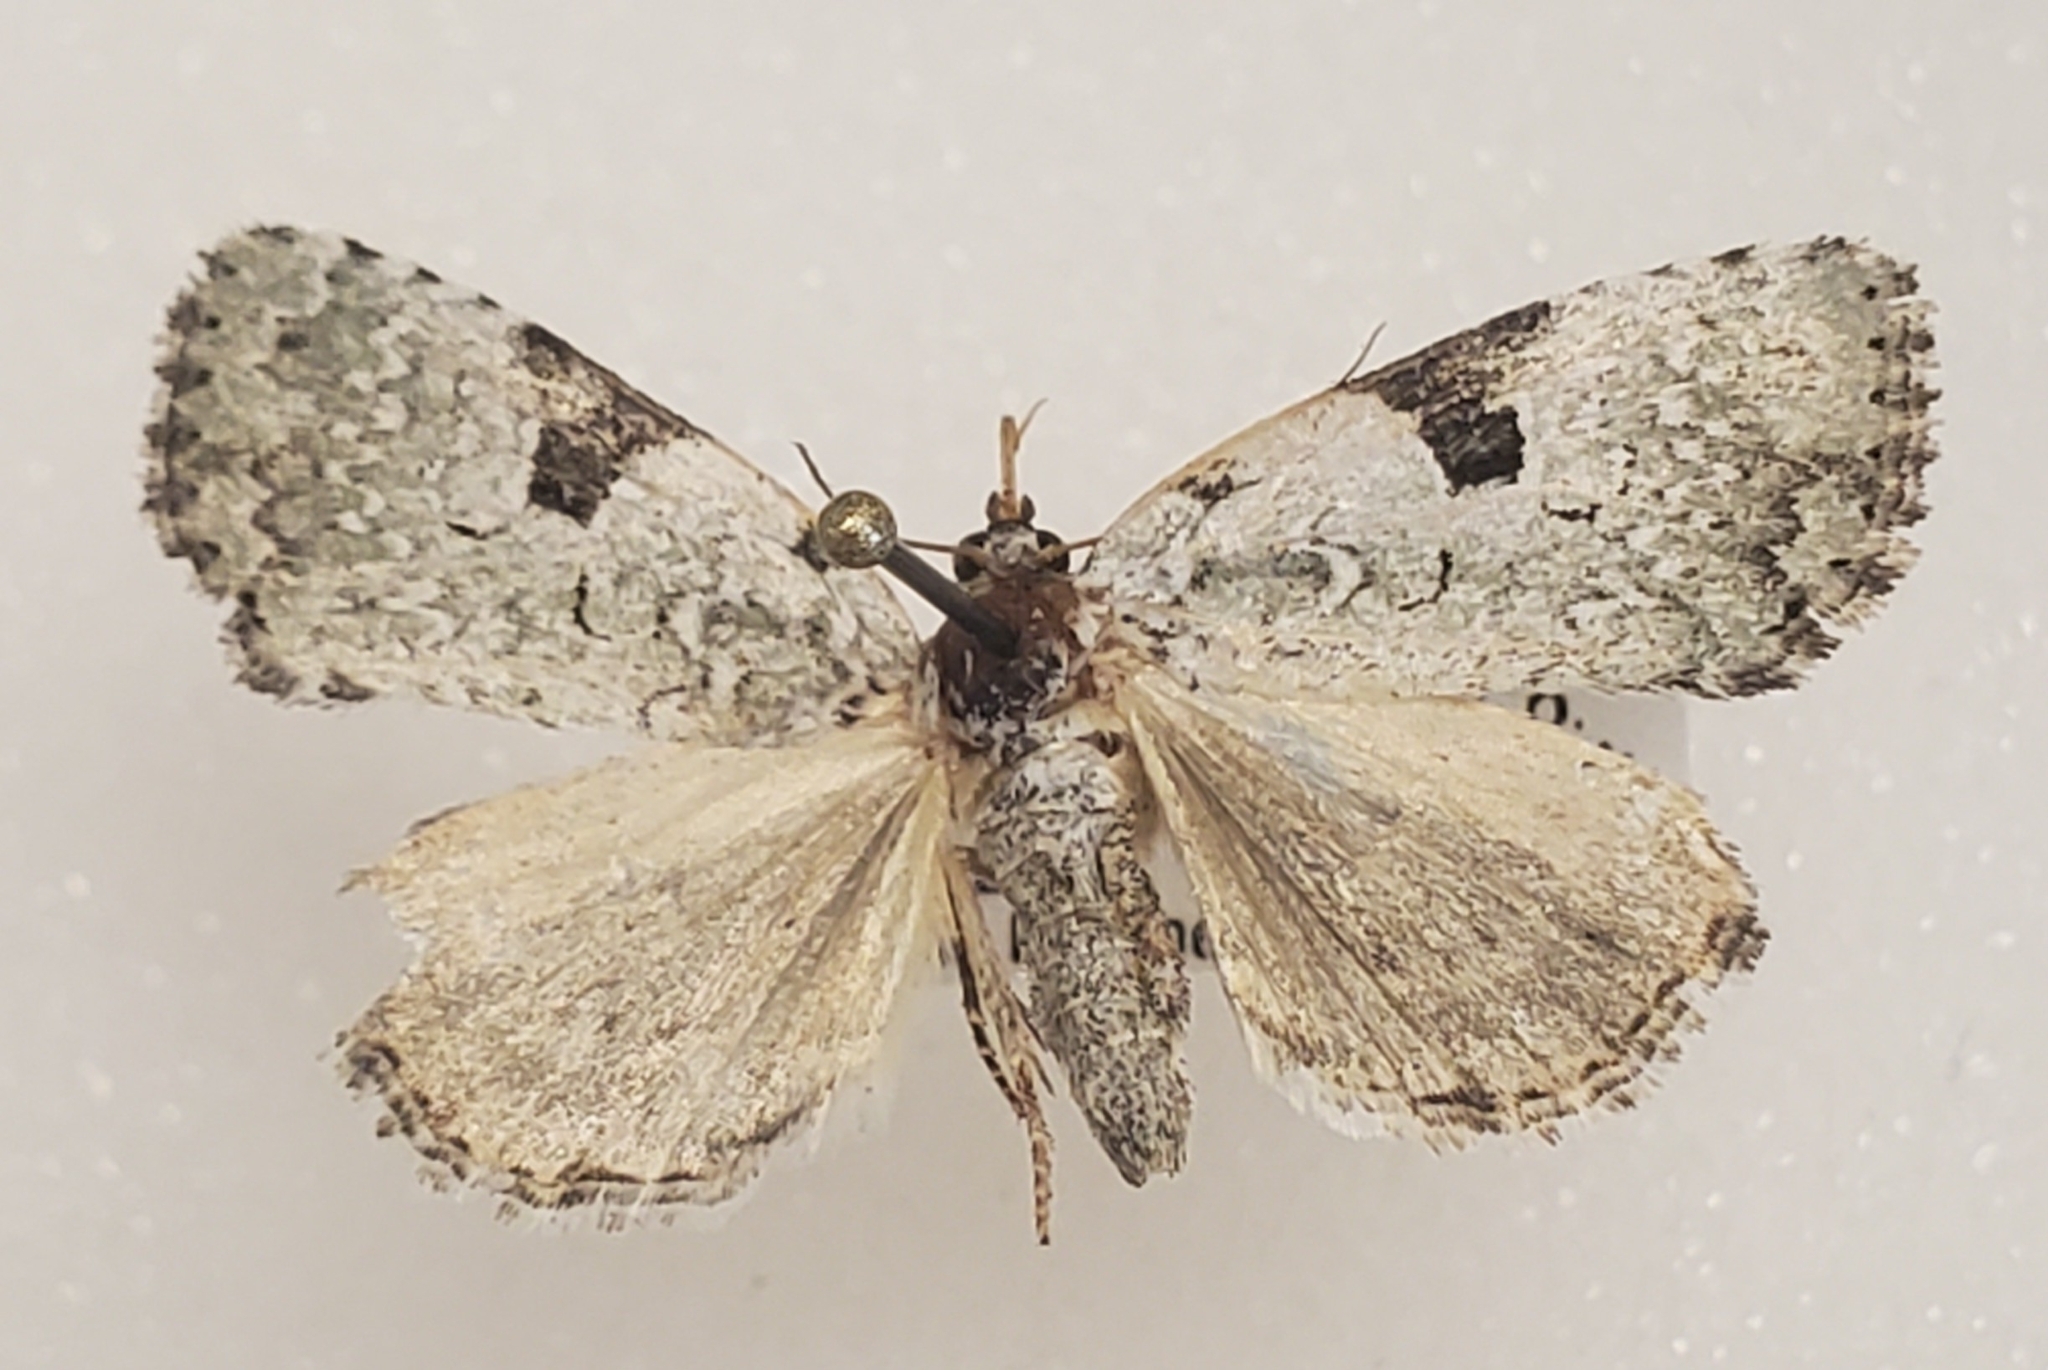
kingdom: Animalia
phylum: Arthropoda
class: Insecta
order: Lepidoptera
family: Noctuidae
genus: Leuconycta
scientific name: Leuconycta diphteroides
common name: Green leuconycta moth
